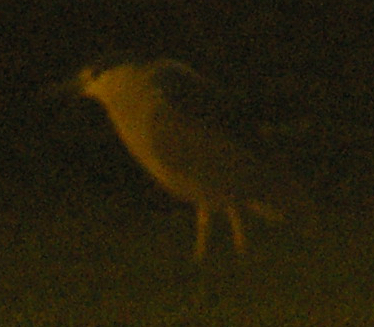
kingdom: Animalia
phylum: Chordata
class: Aves
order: Pelecaniformes
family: Ardeidae
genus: Nycticorax
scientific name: Nycticorax nycticorax
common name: Black-crowned night heron
